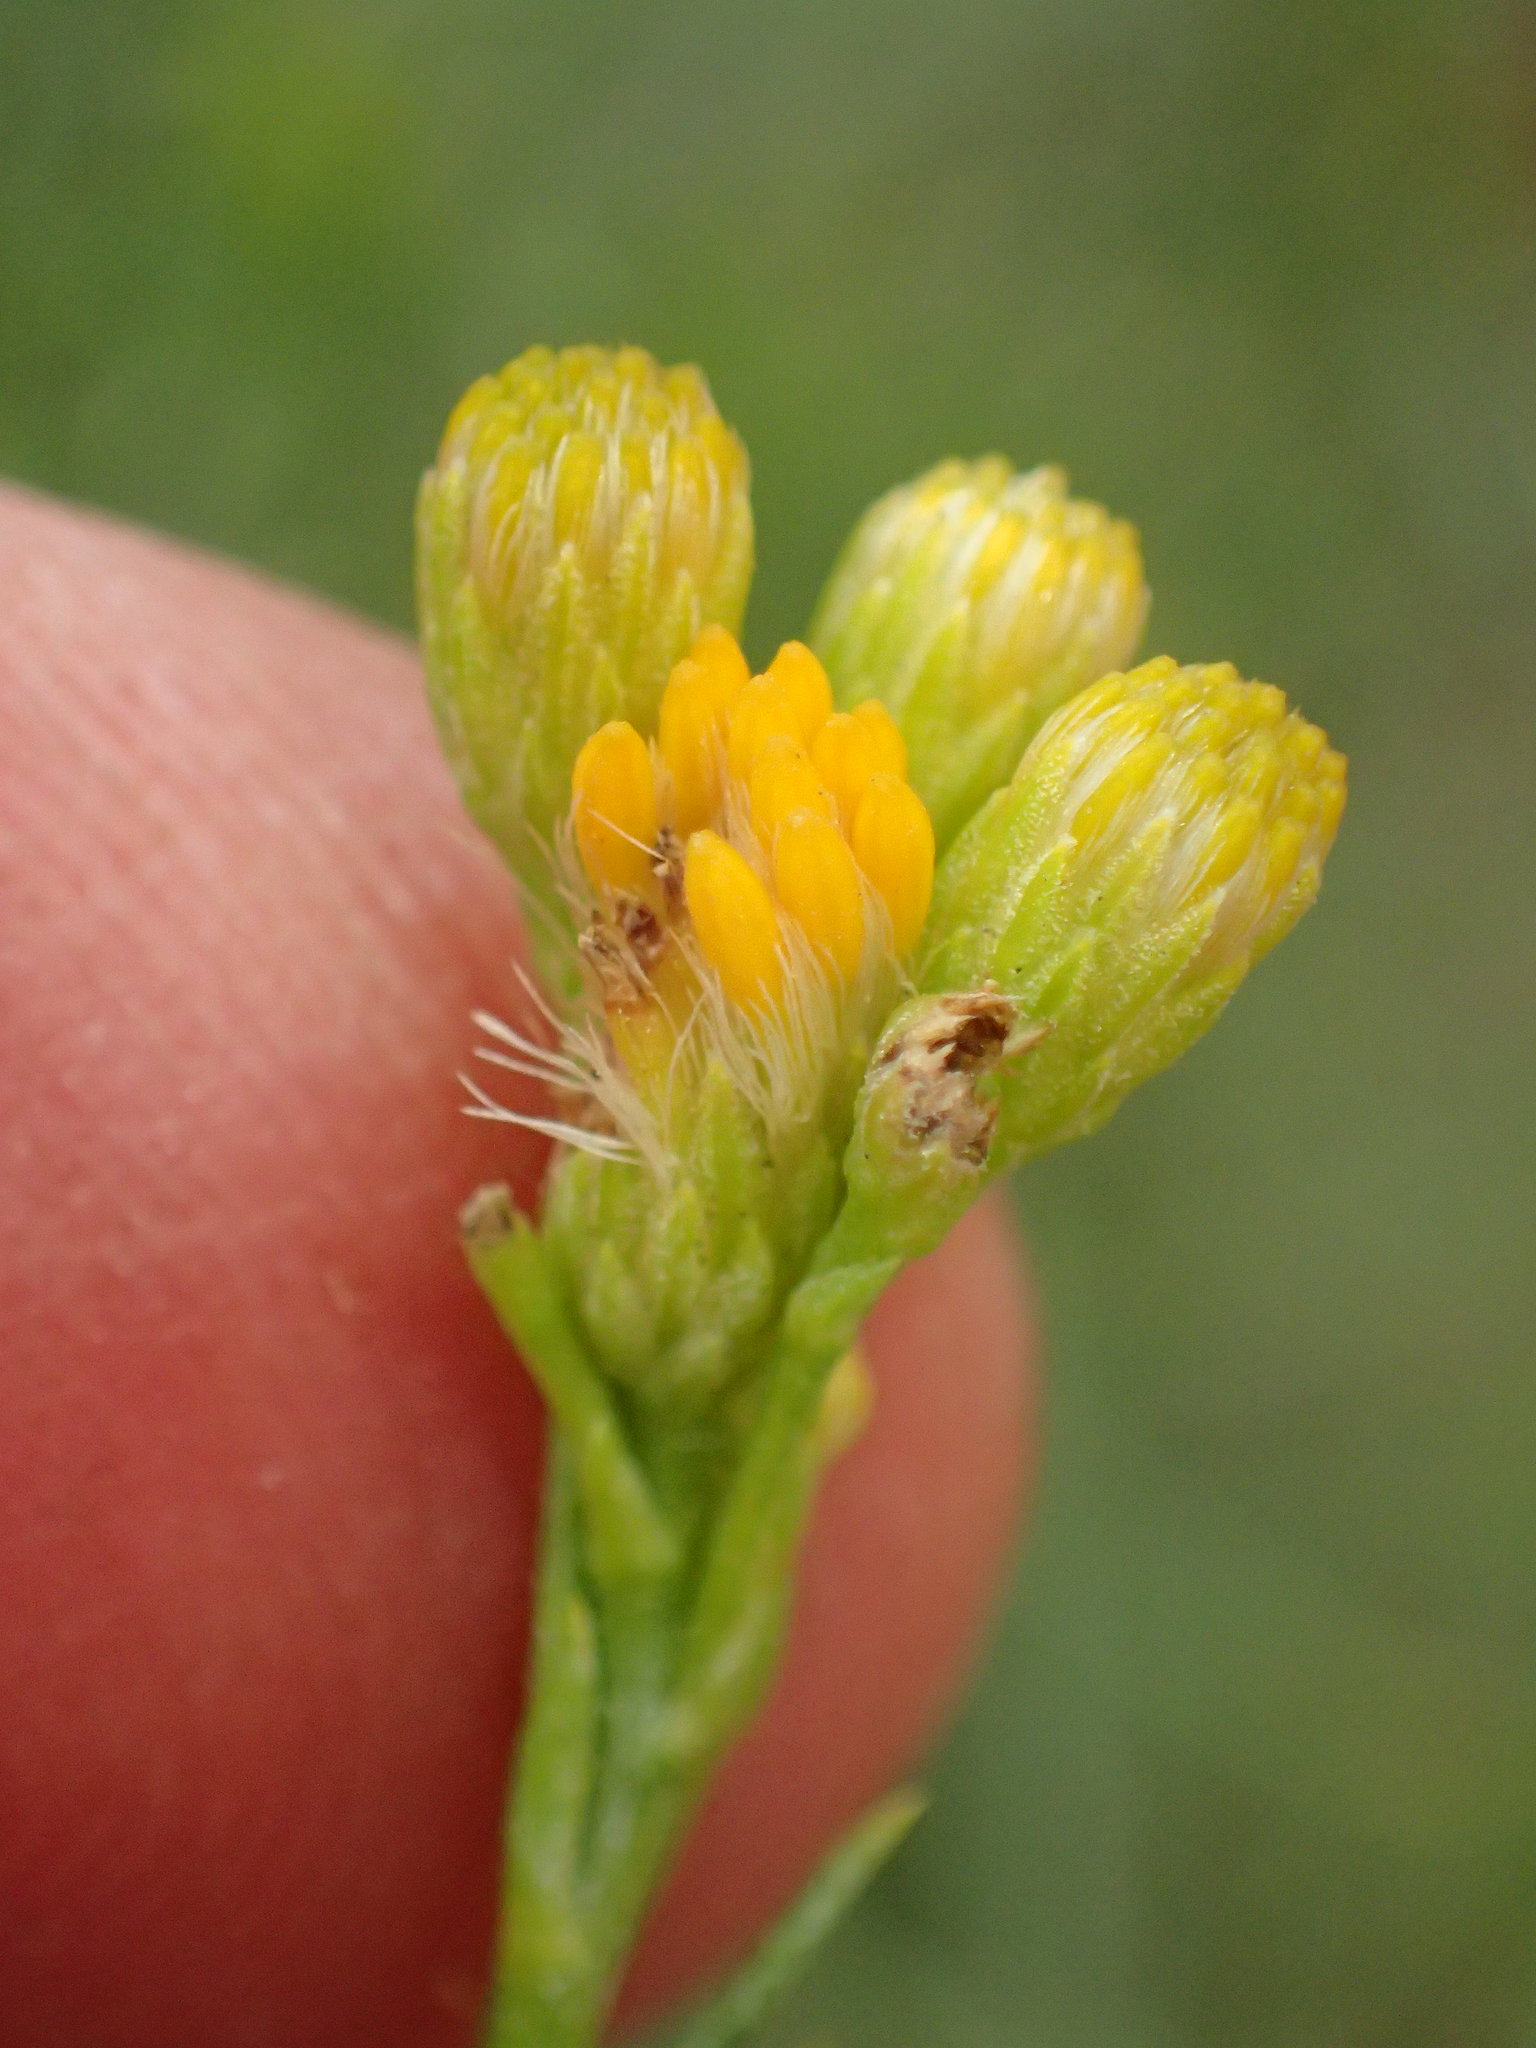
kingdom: Plantae
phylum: Tracheophyta
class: Magnoliopsida
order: Asterales
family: Asteraceae
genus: Ericameria
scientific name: Ericameria arborescens
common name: Goldenfleece
